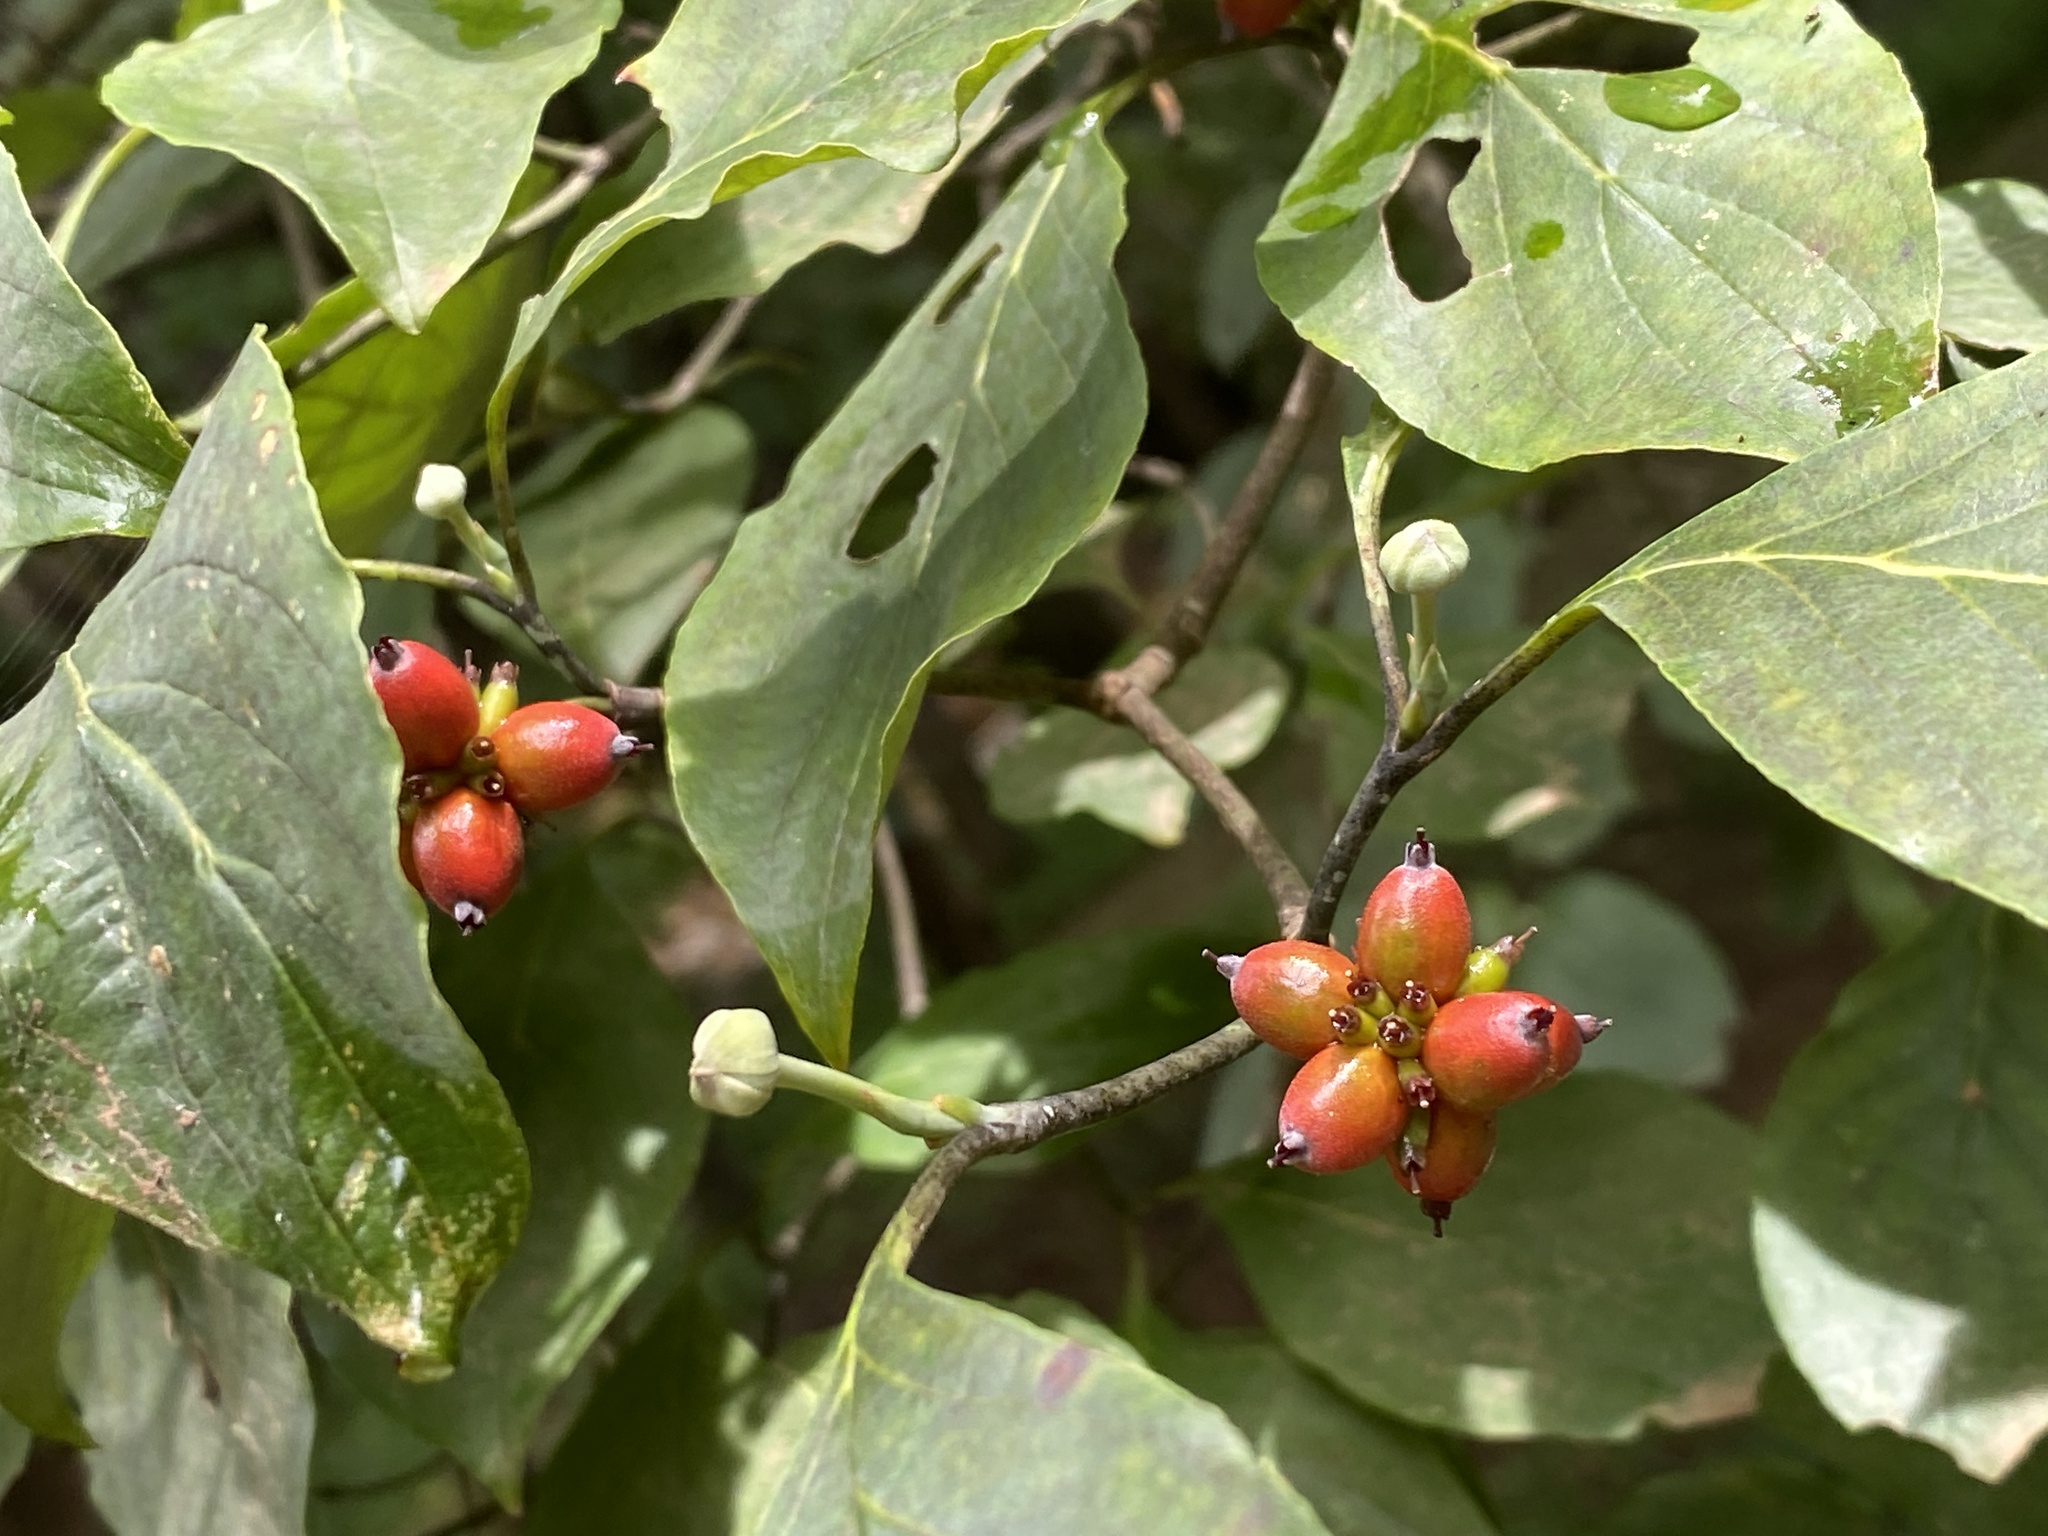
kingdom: Plantae
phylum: Tracheophyta
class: Magnoliopsida
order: Cornales
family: Cornaceae
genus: Cornus
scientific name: Cornus florida
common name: Flowering dogwood
